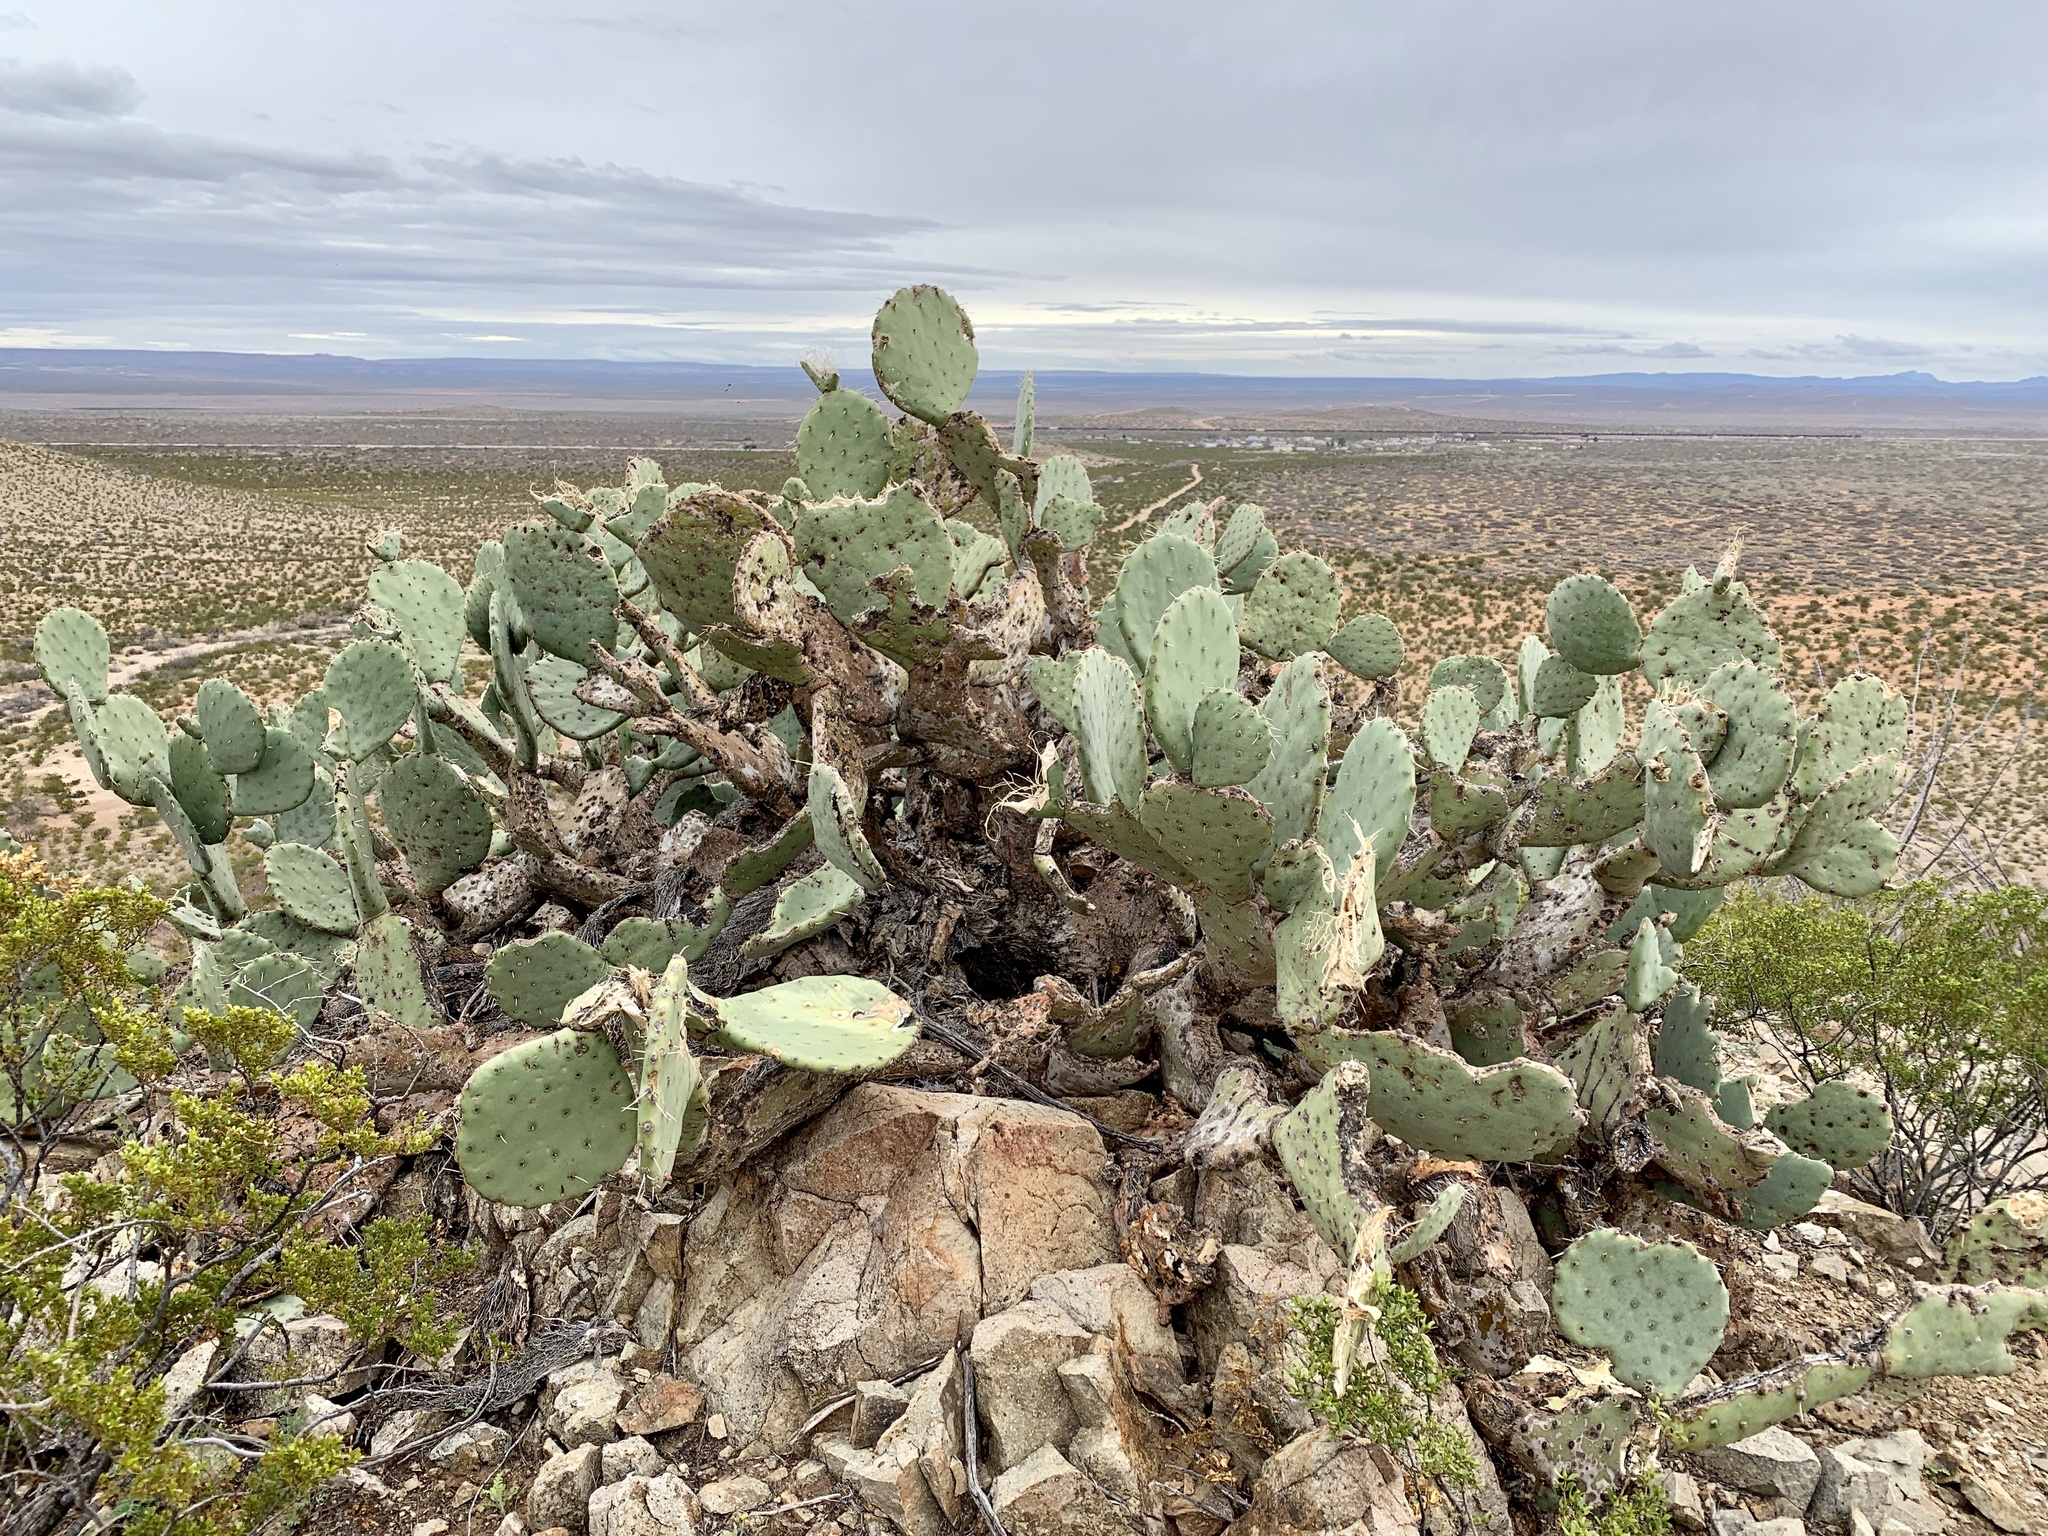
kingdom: Plantae
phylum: Tracheophyta
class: Magnoliopsida
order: Caryophyllales
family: Cactaceae
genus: Opuntia
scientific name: Opuntia engelmannii
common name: Cactus-apple
